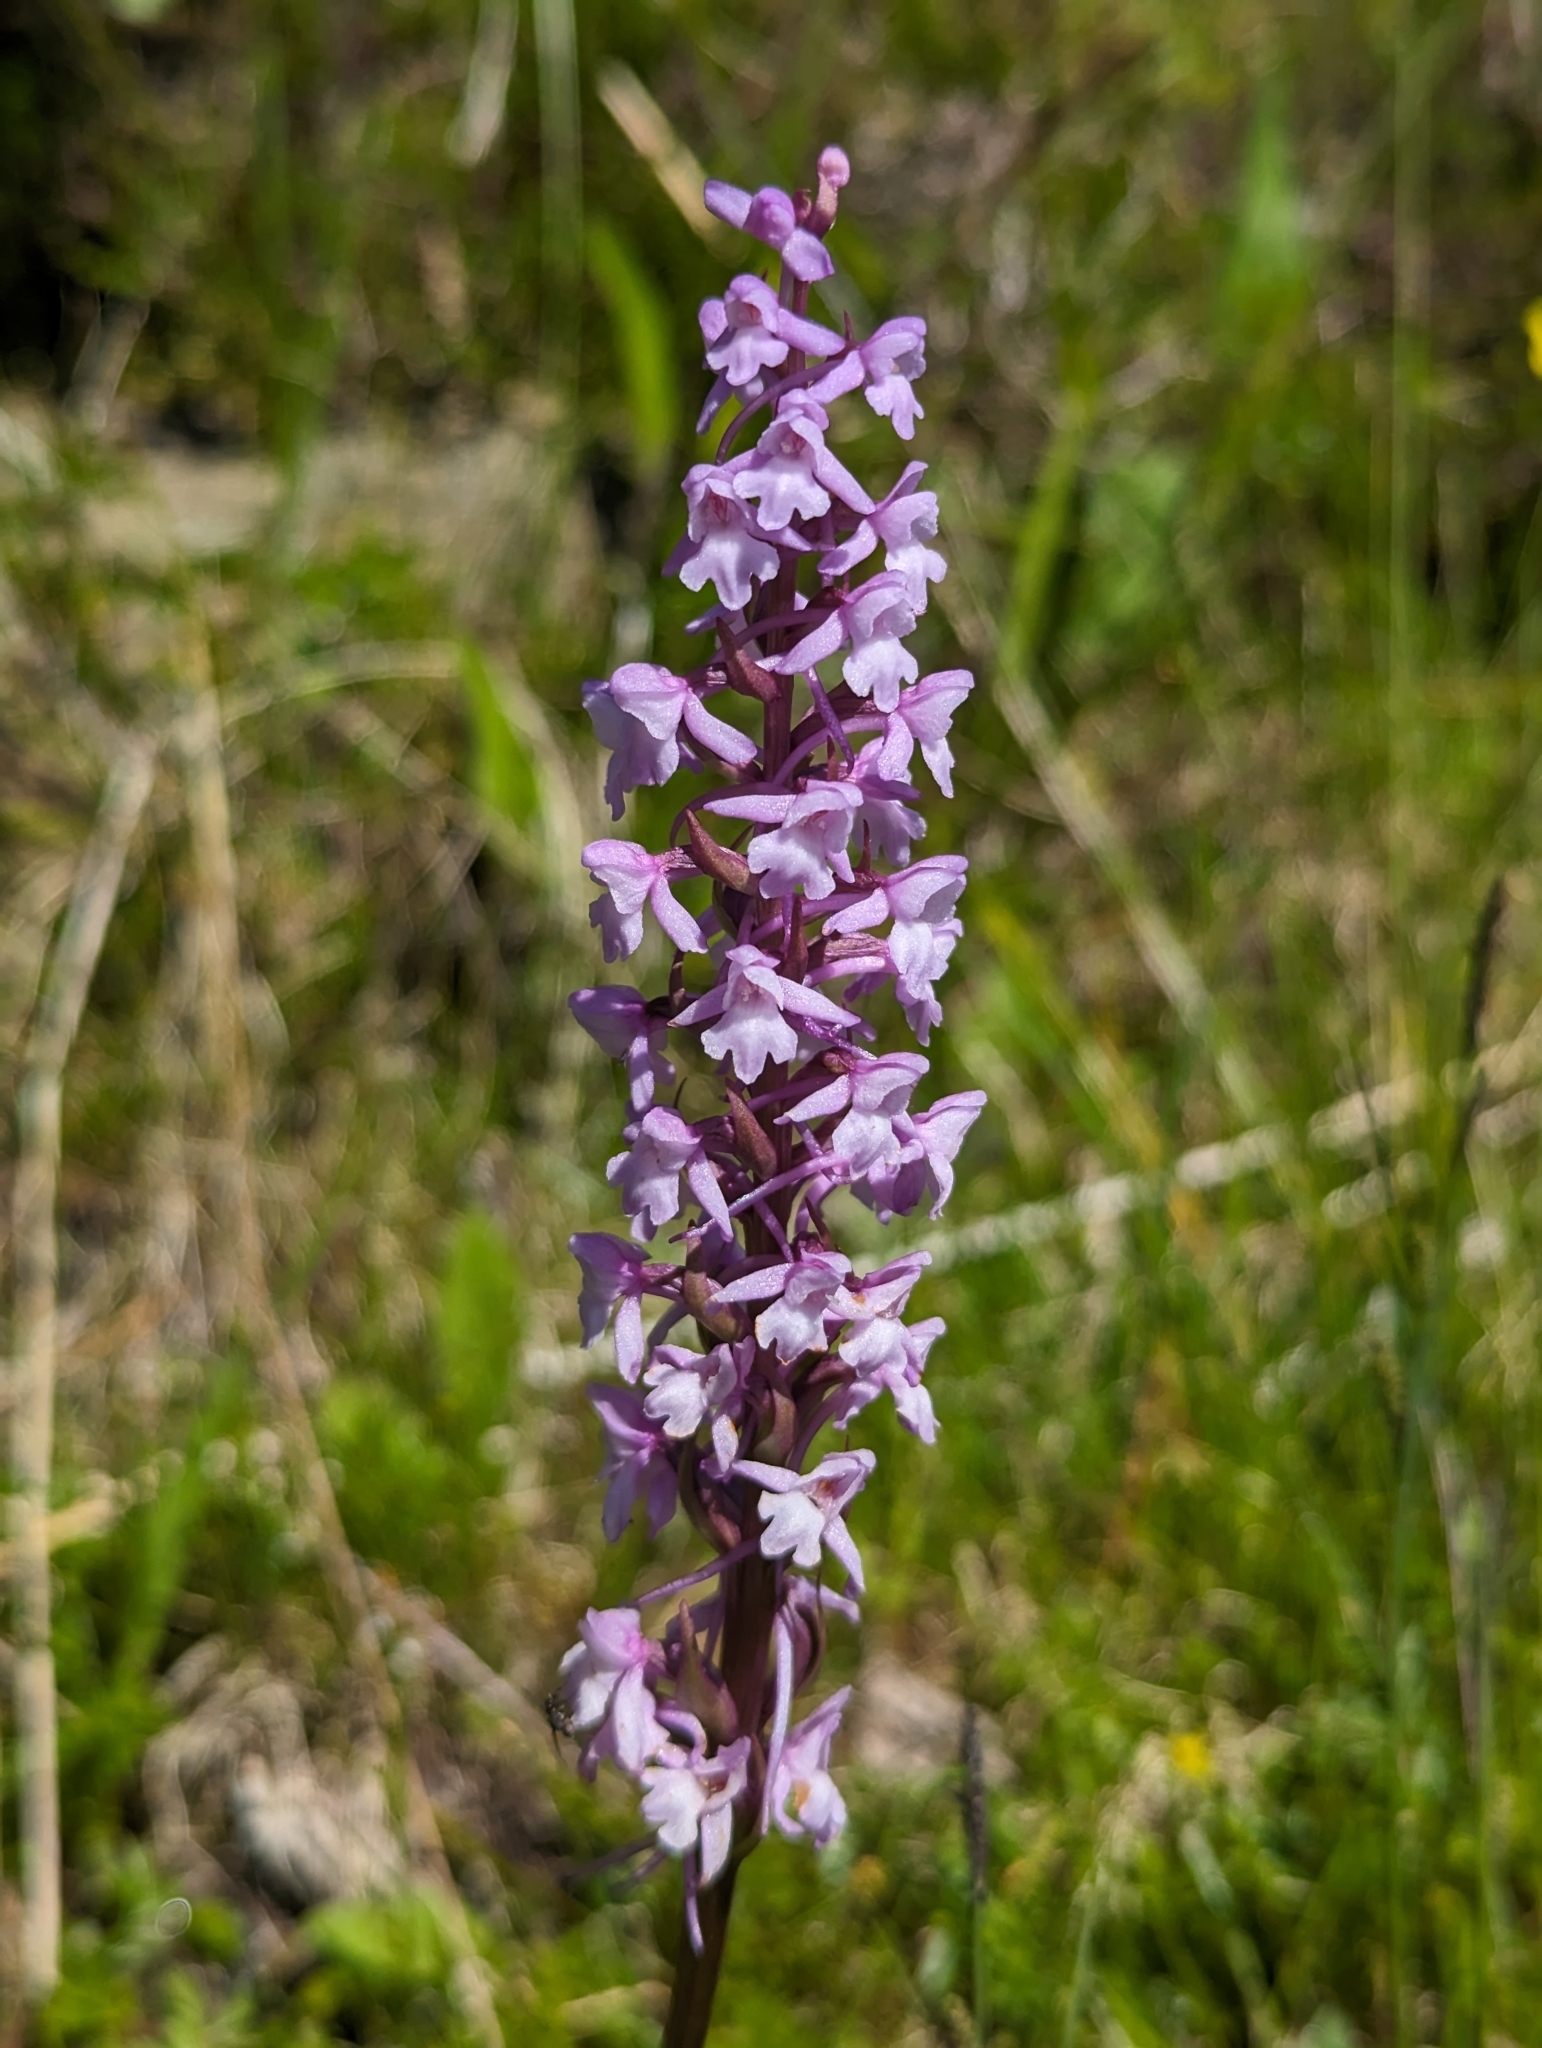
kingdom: Plantae
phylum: Tracheophyta
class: Liliopsida
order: Asparagales
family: Orchidaceae
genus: Gymnadenia
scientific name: Gymnadenia conopsea
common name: Fragrant orchid
